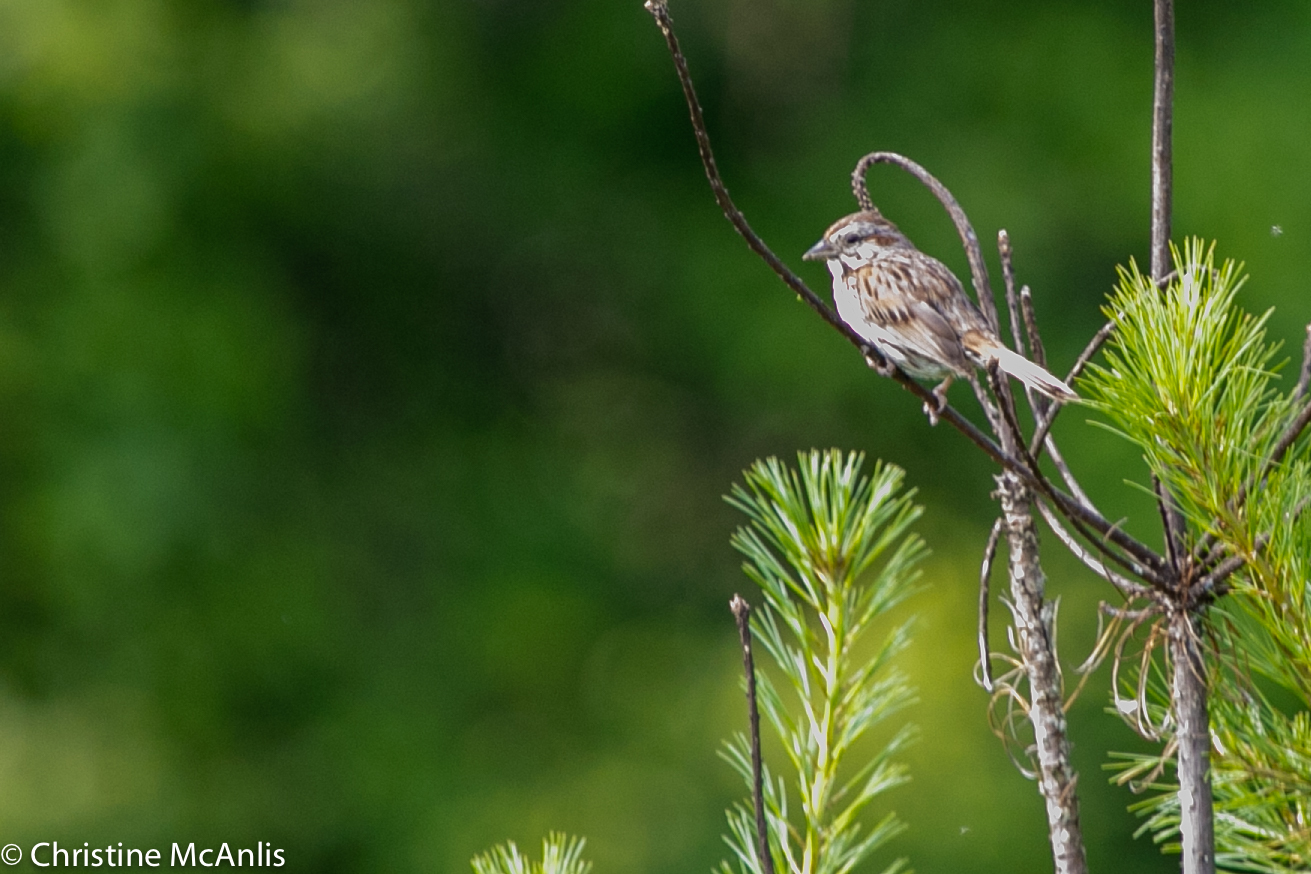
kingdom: Animalia
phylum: Chordata
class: Aves
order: Passeriformes
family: Passerellidae
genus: Melospiza
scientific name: Melospiza melodia
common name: Song sparrow
